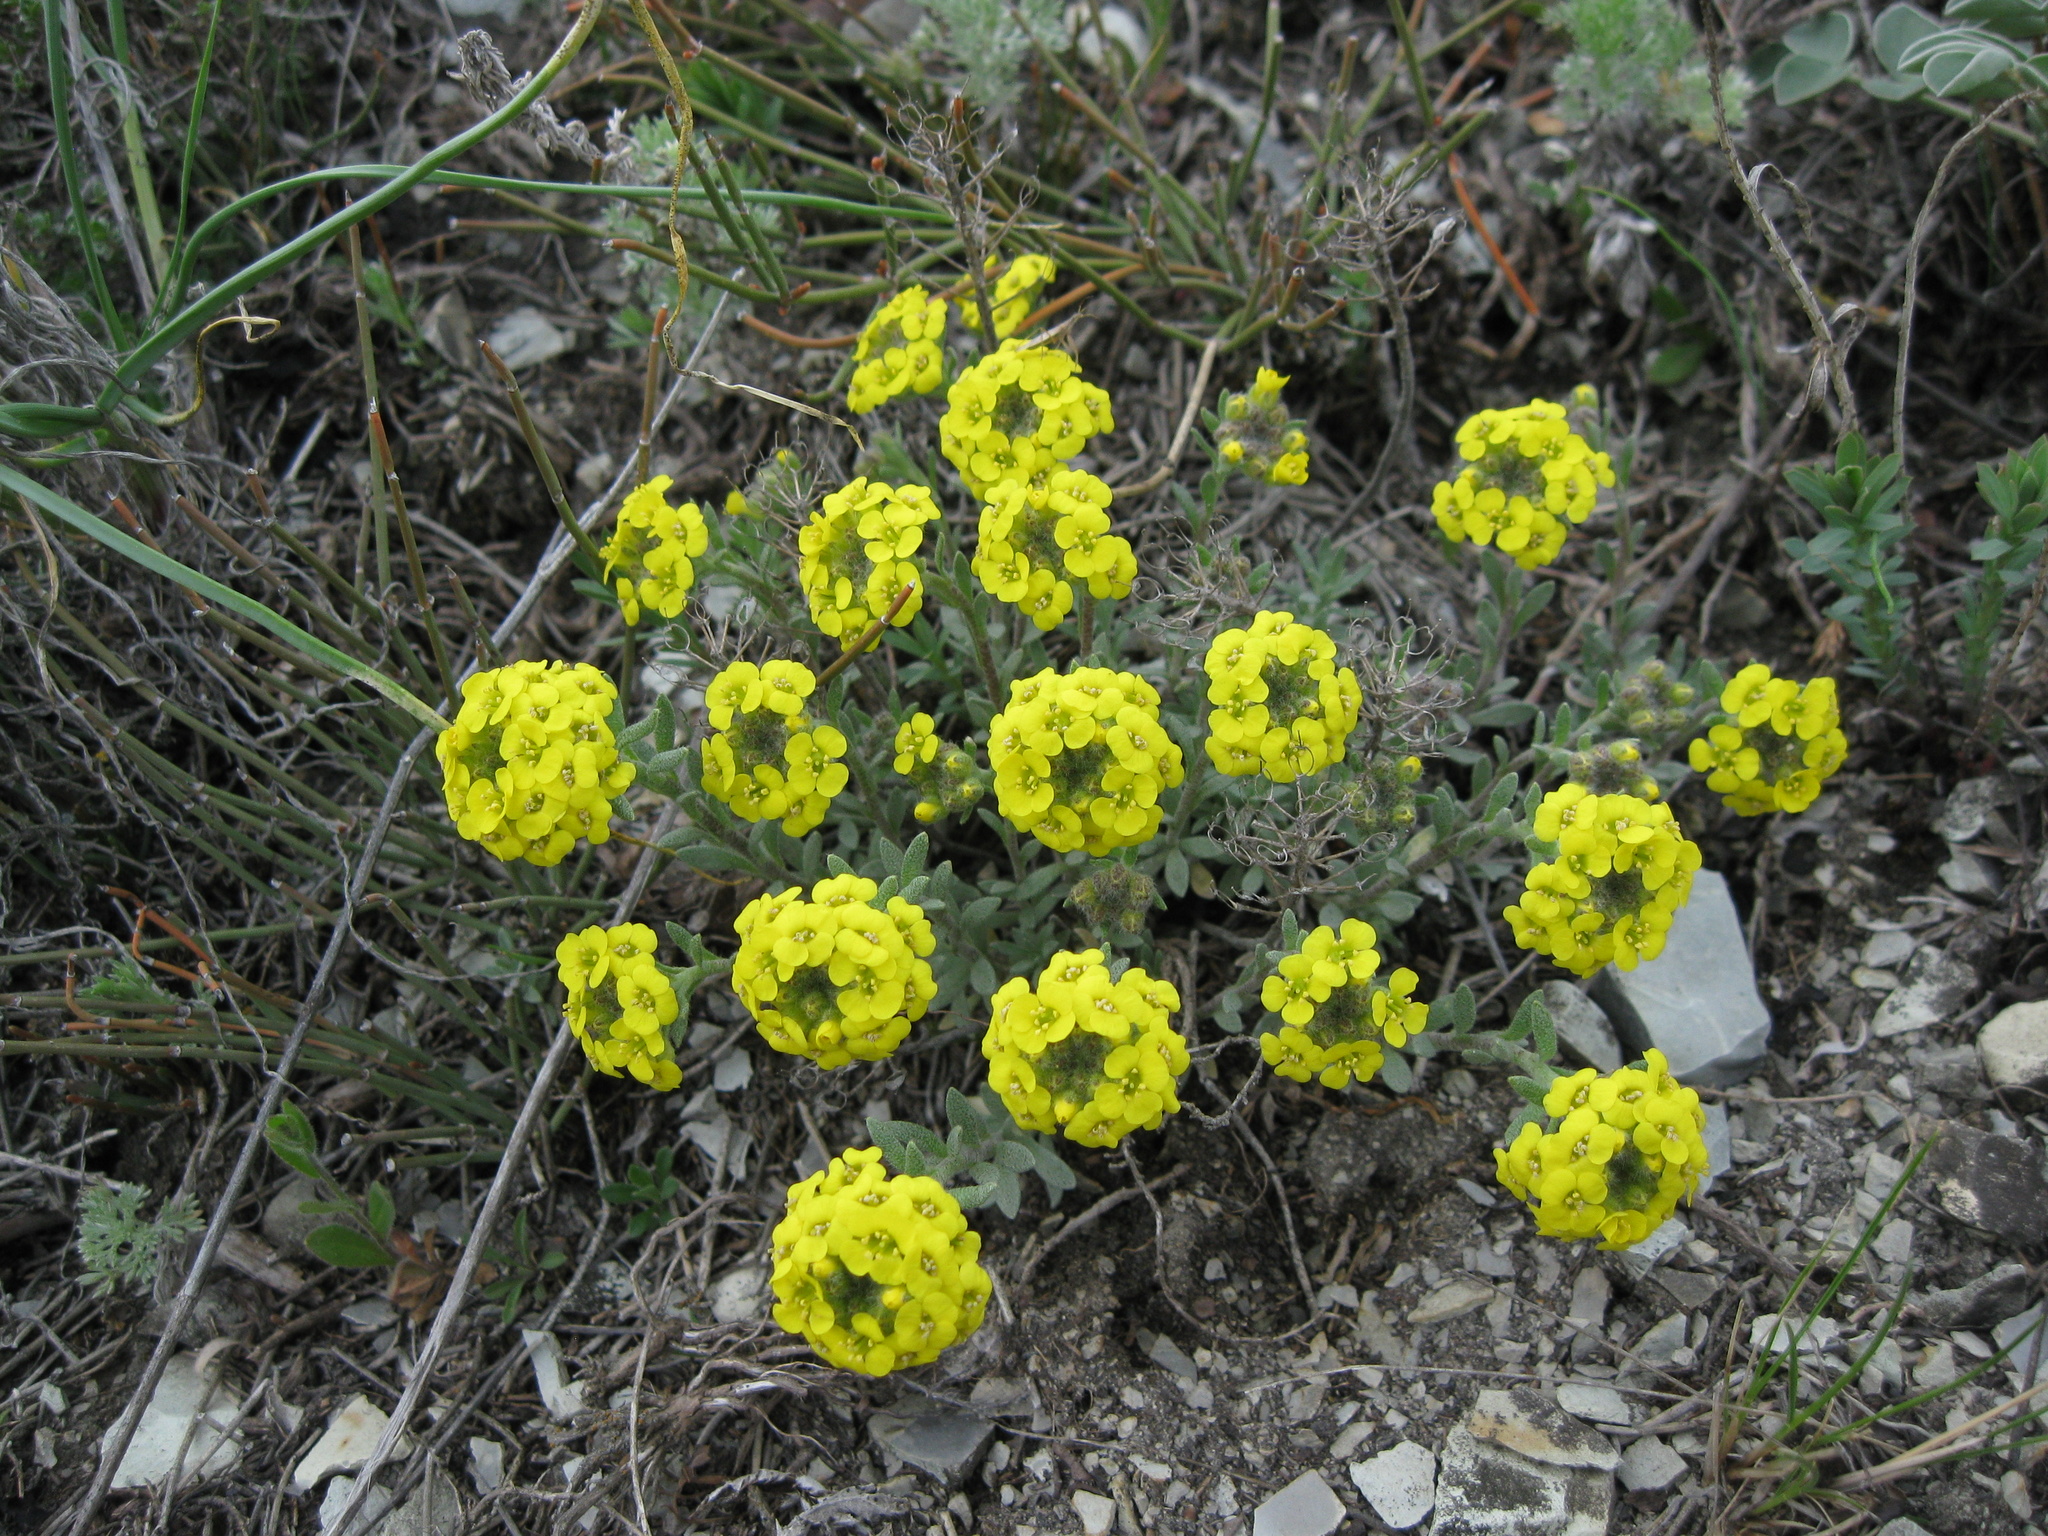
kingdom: Plantae
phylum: Tracheophyta
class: Magnoliopsida
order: Brassicales
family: Brassicaceae
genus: Alyssum
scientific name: Alyssum lenense
